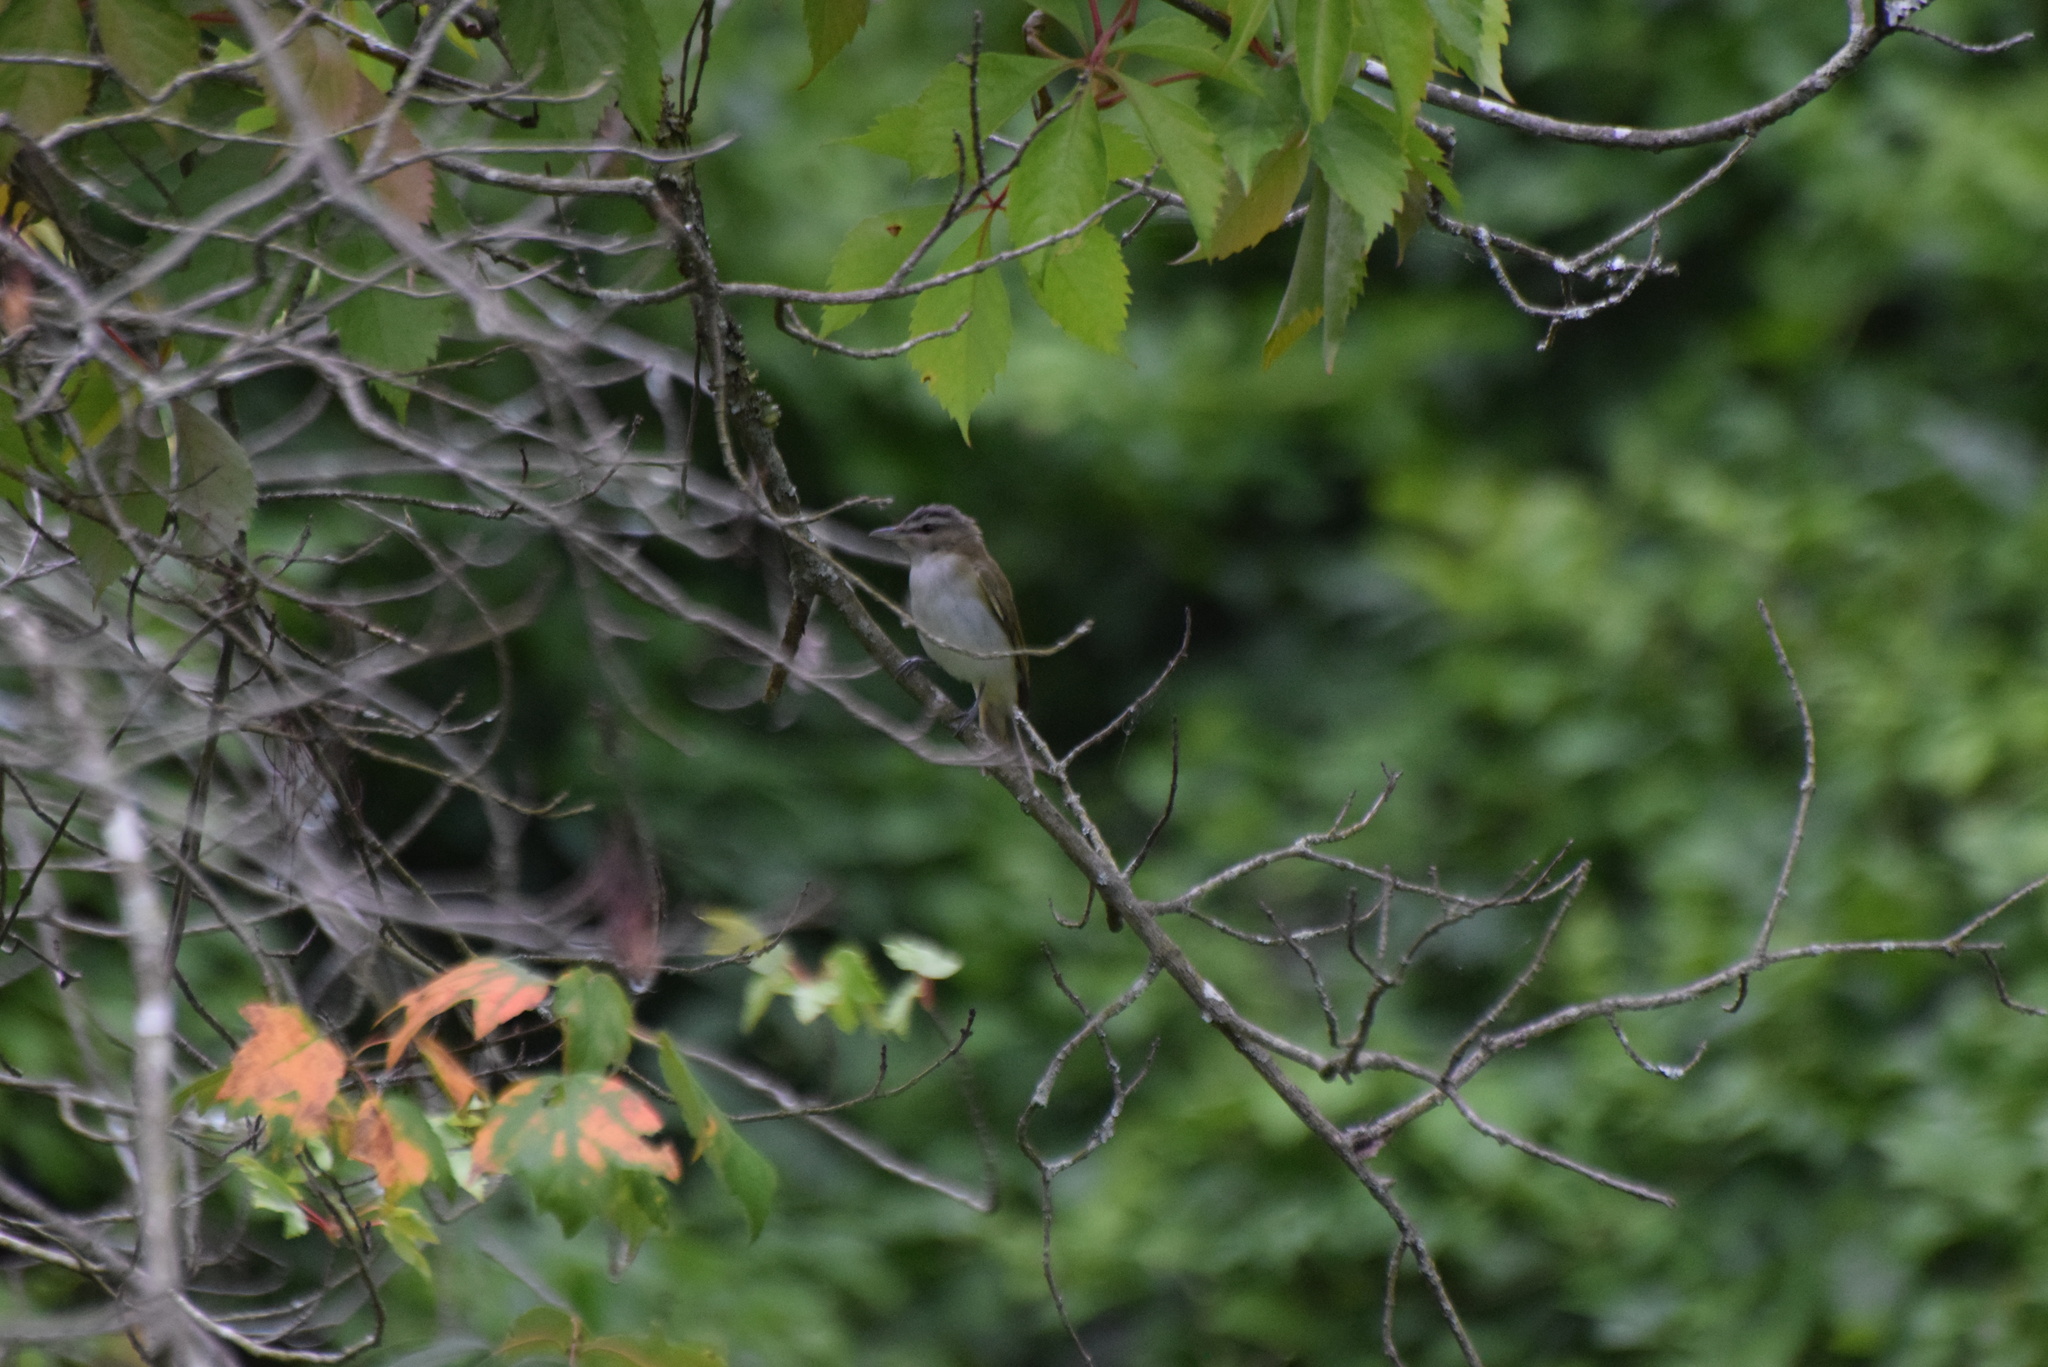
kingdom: Animalia
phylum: Chordata
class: Aves
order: Passeriformes
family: Vireonidae
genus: Vireo
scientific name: Vireo olivaceus
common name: Red-eyed vireo
